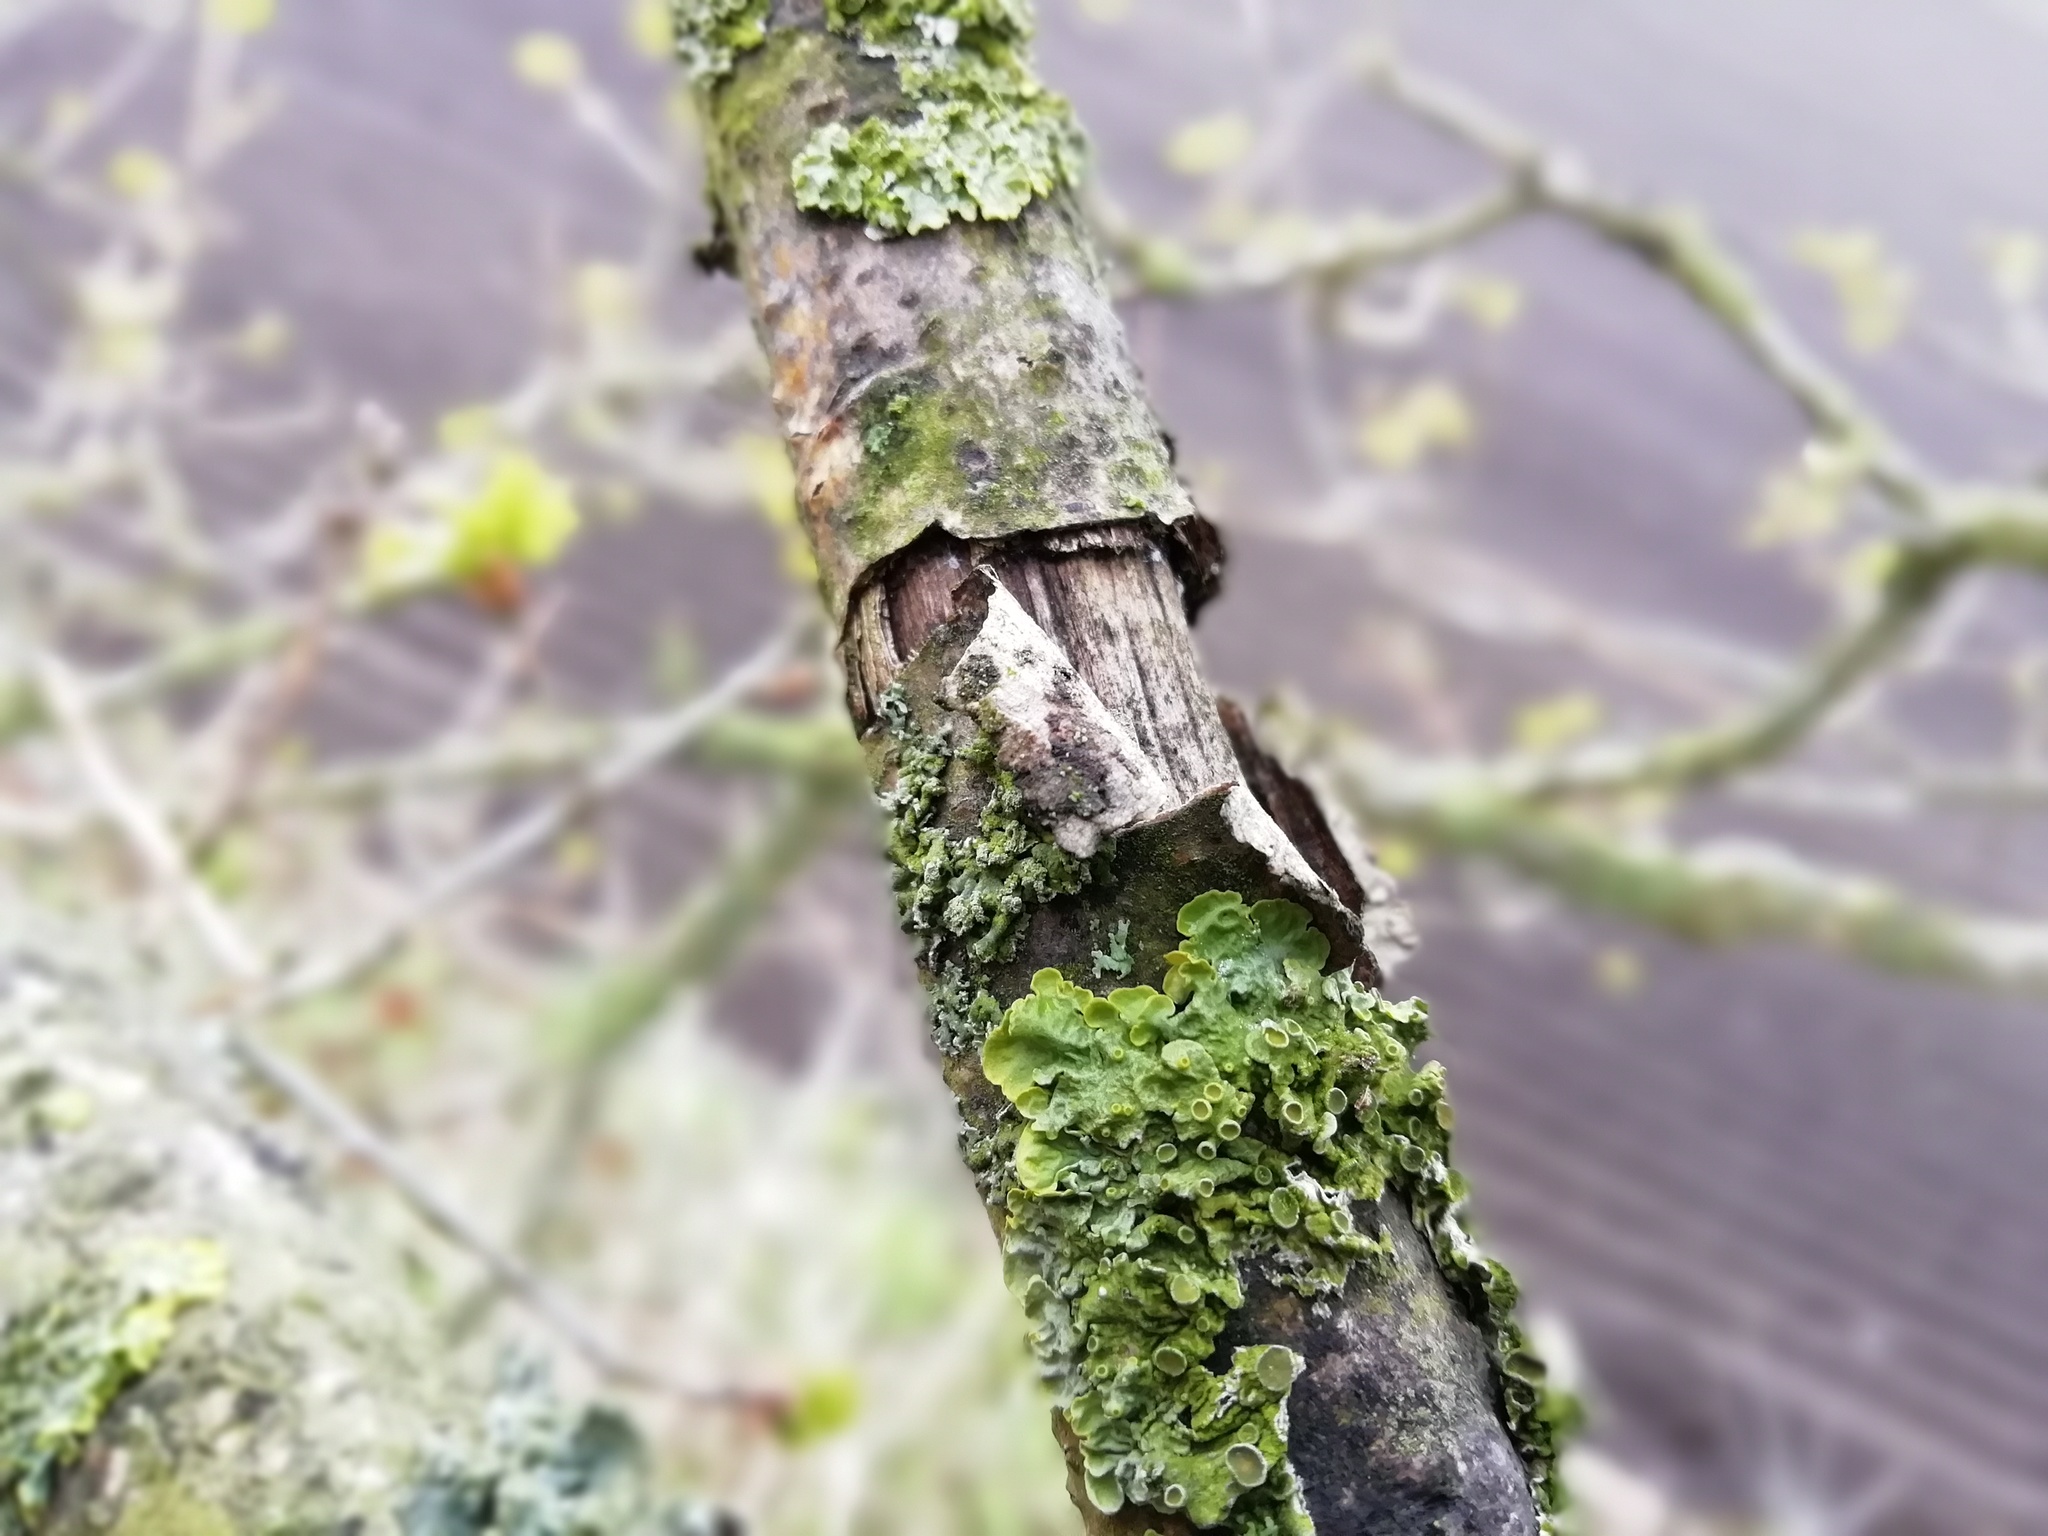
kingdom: Fungi
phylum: Ascomycota
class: Lecanoromycetes
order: Teloschistales
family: Teloschistaceae
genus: Xanthoria
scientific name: Xanthoria parietina
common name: Common orange lichen
